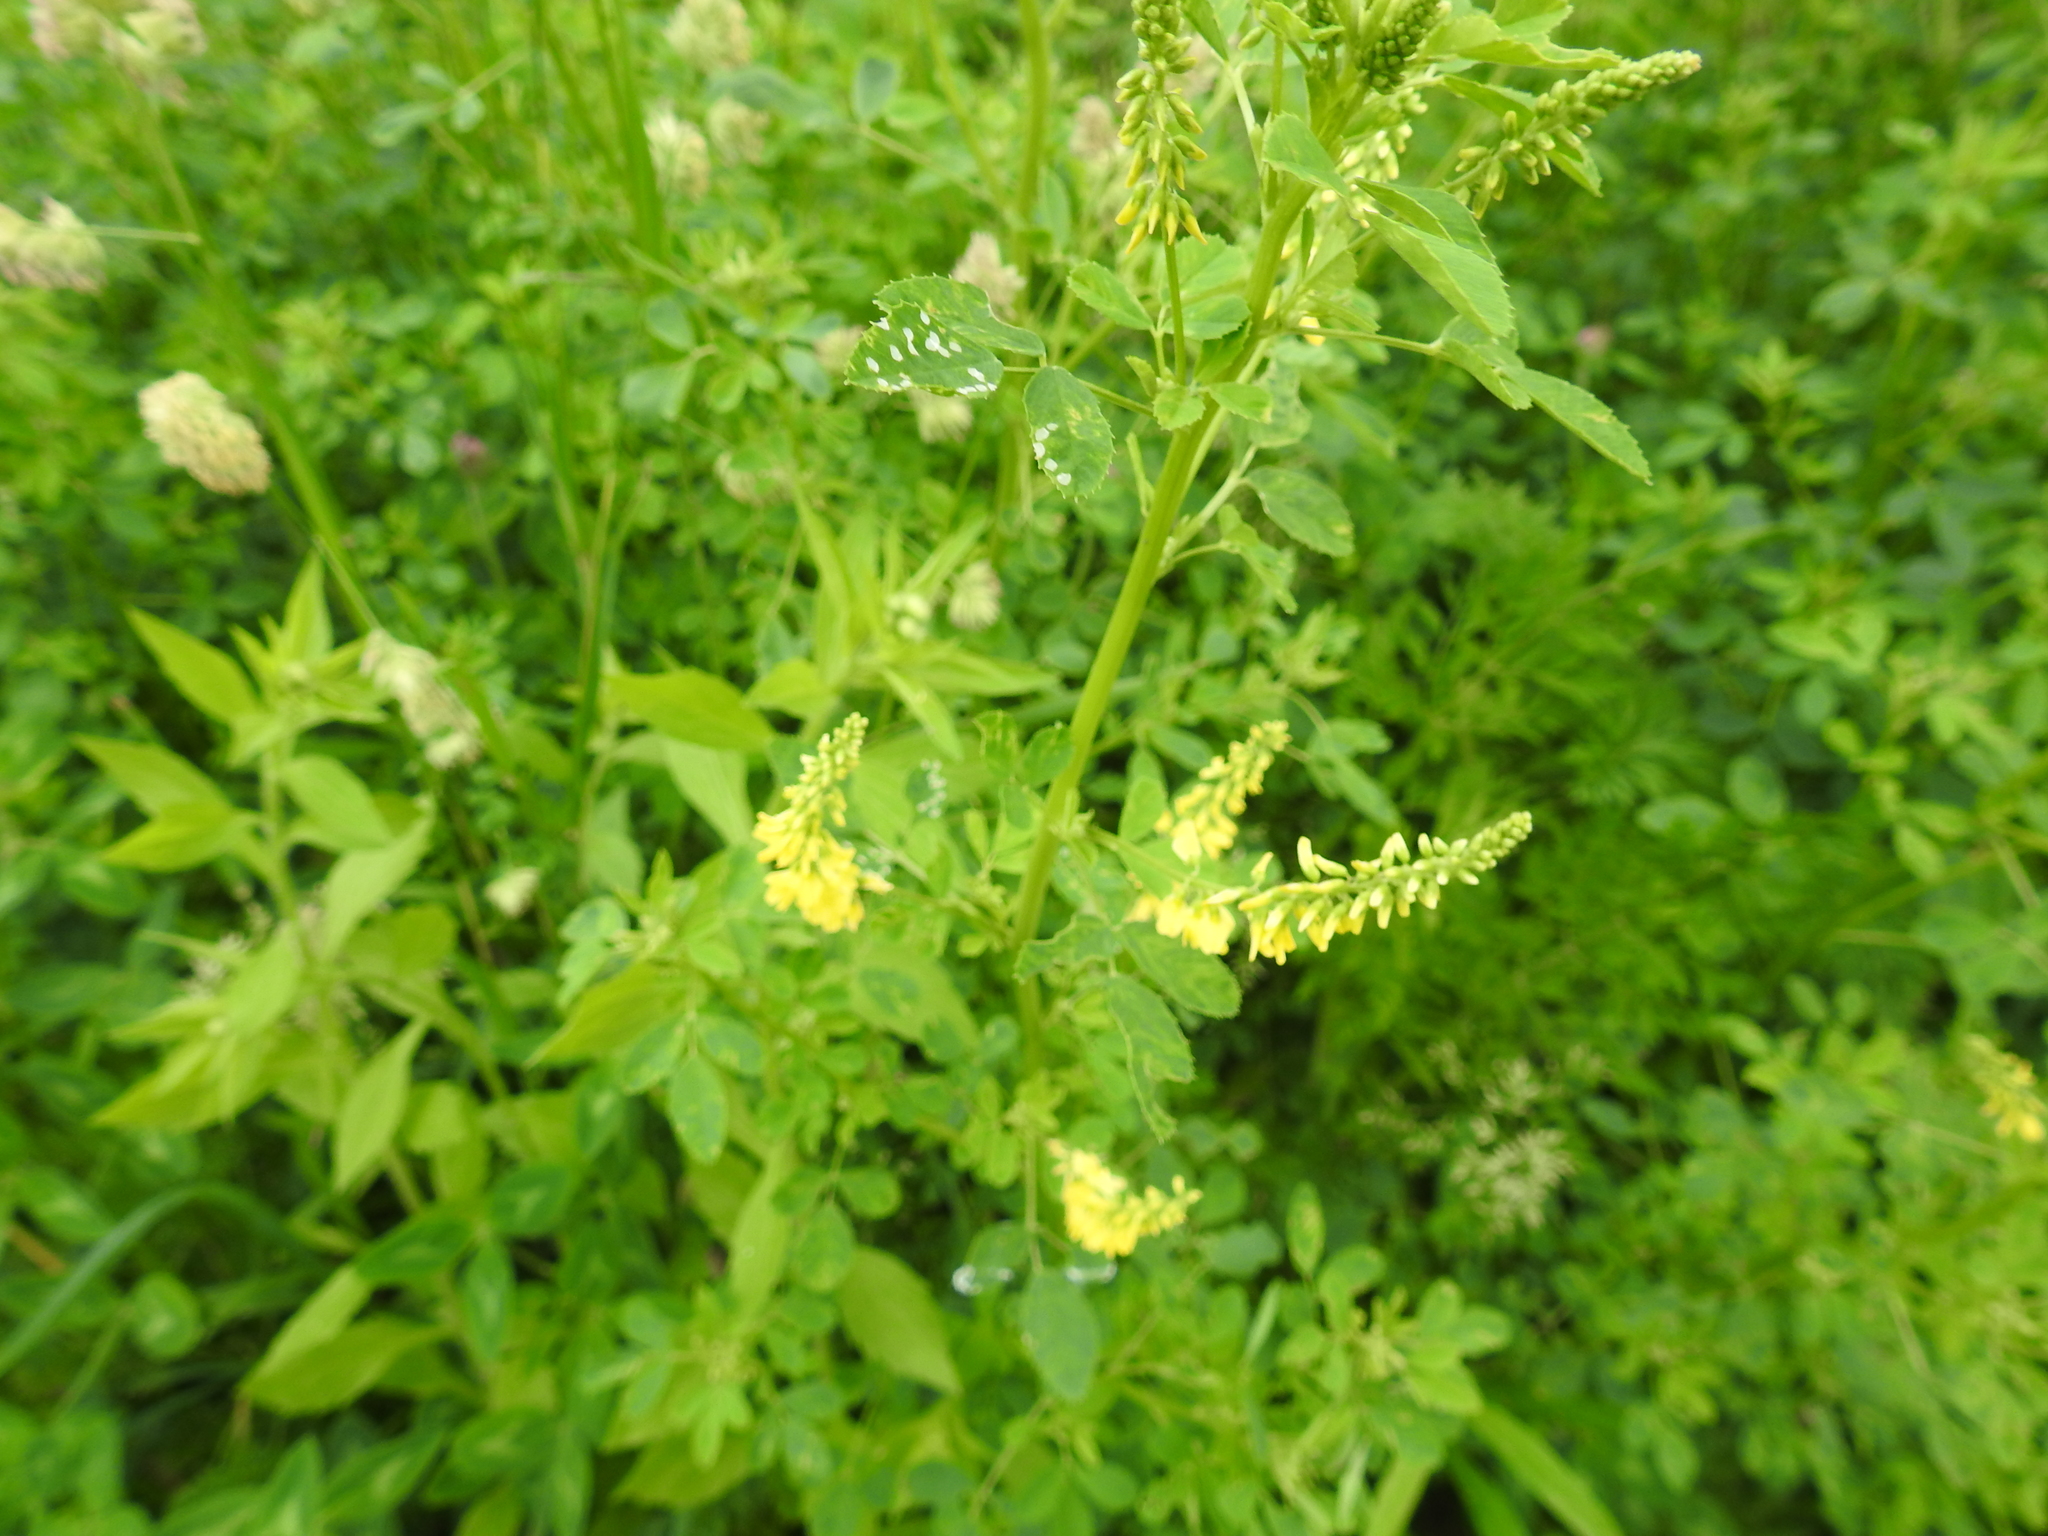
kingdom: Plantae
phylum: Tracheophyta
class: Magnoliopsida
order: Fabales
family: Fabaceae
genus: Melilotus
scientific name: Melilotus officinalis
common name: Sweetclover
